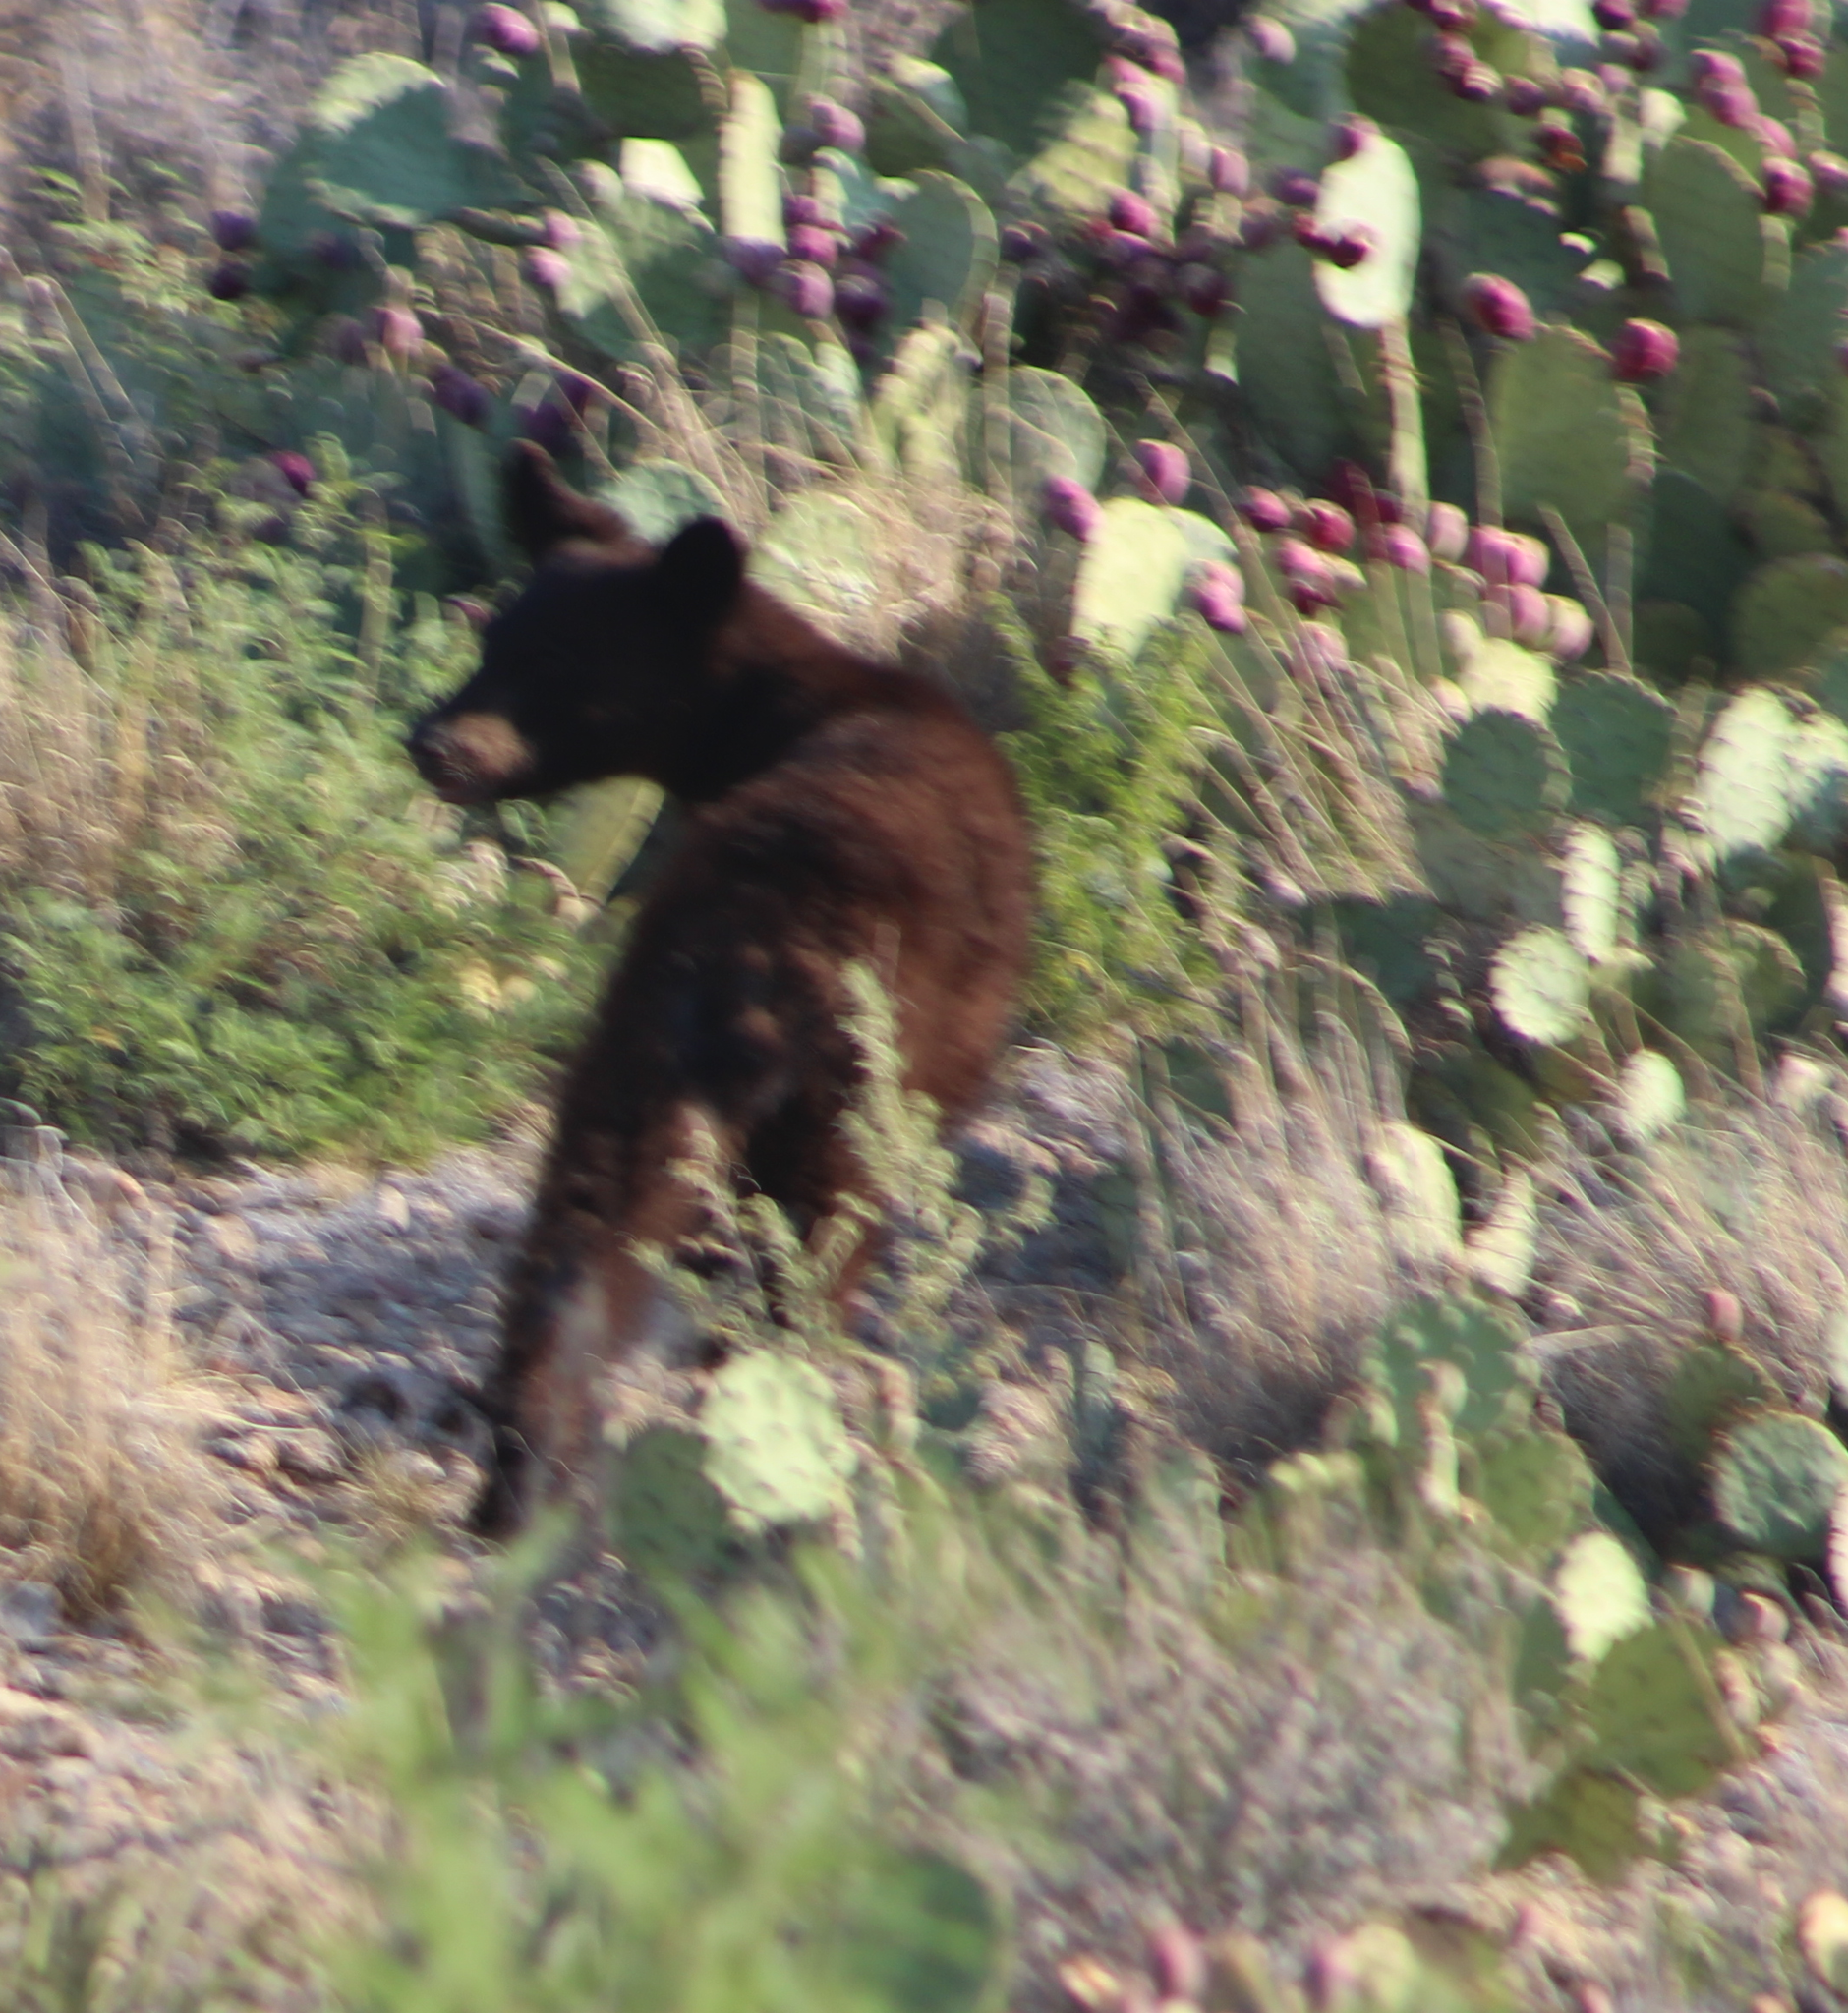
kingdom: Animalia
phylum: Chordata
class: Mammalia
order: Carnivora
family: Ursidae
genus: Ursus
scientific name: Ursus americanus
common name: American black bear
